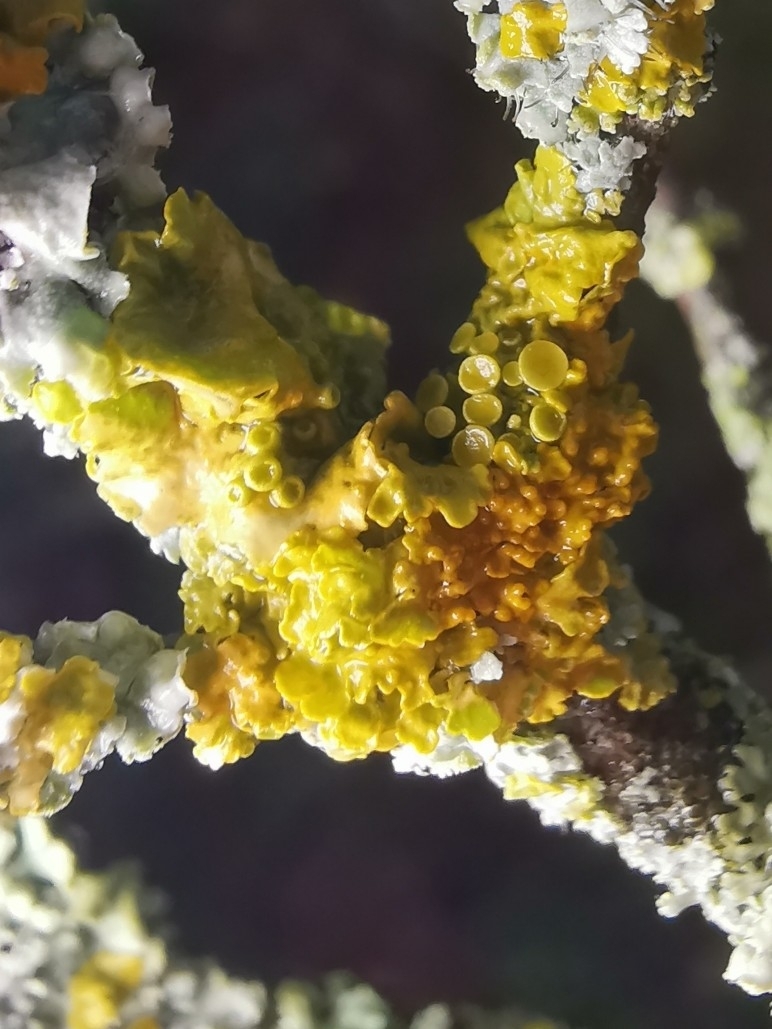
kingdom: Fungi
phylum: Ascomycota
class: Lecanoromycetes
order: Teloschistales
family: Teloschistaceae
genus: Xanthoria
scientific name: Xanthoria parietina
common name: Common orange lichen
